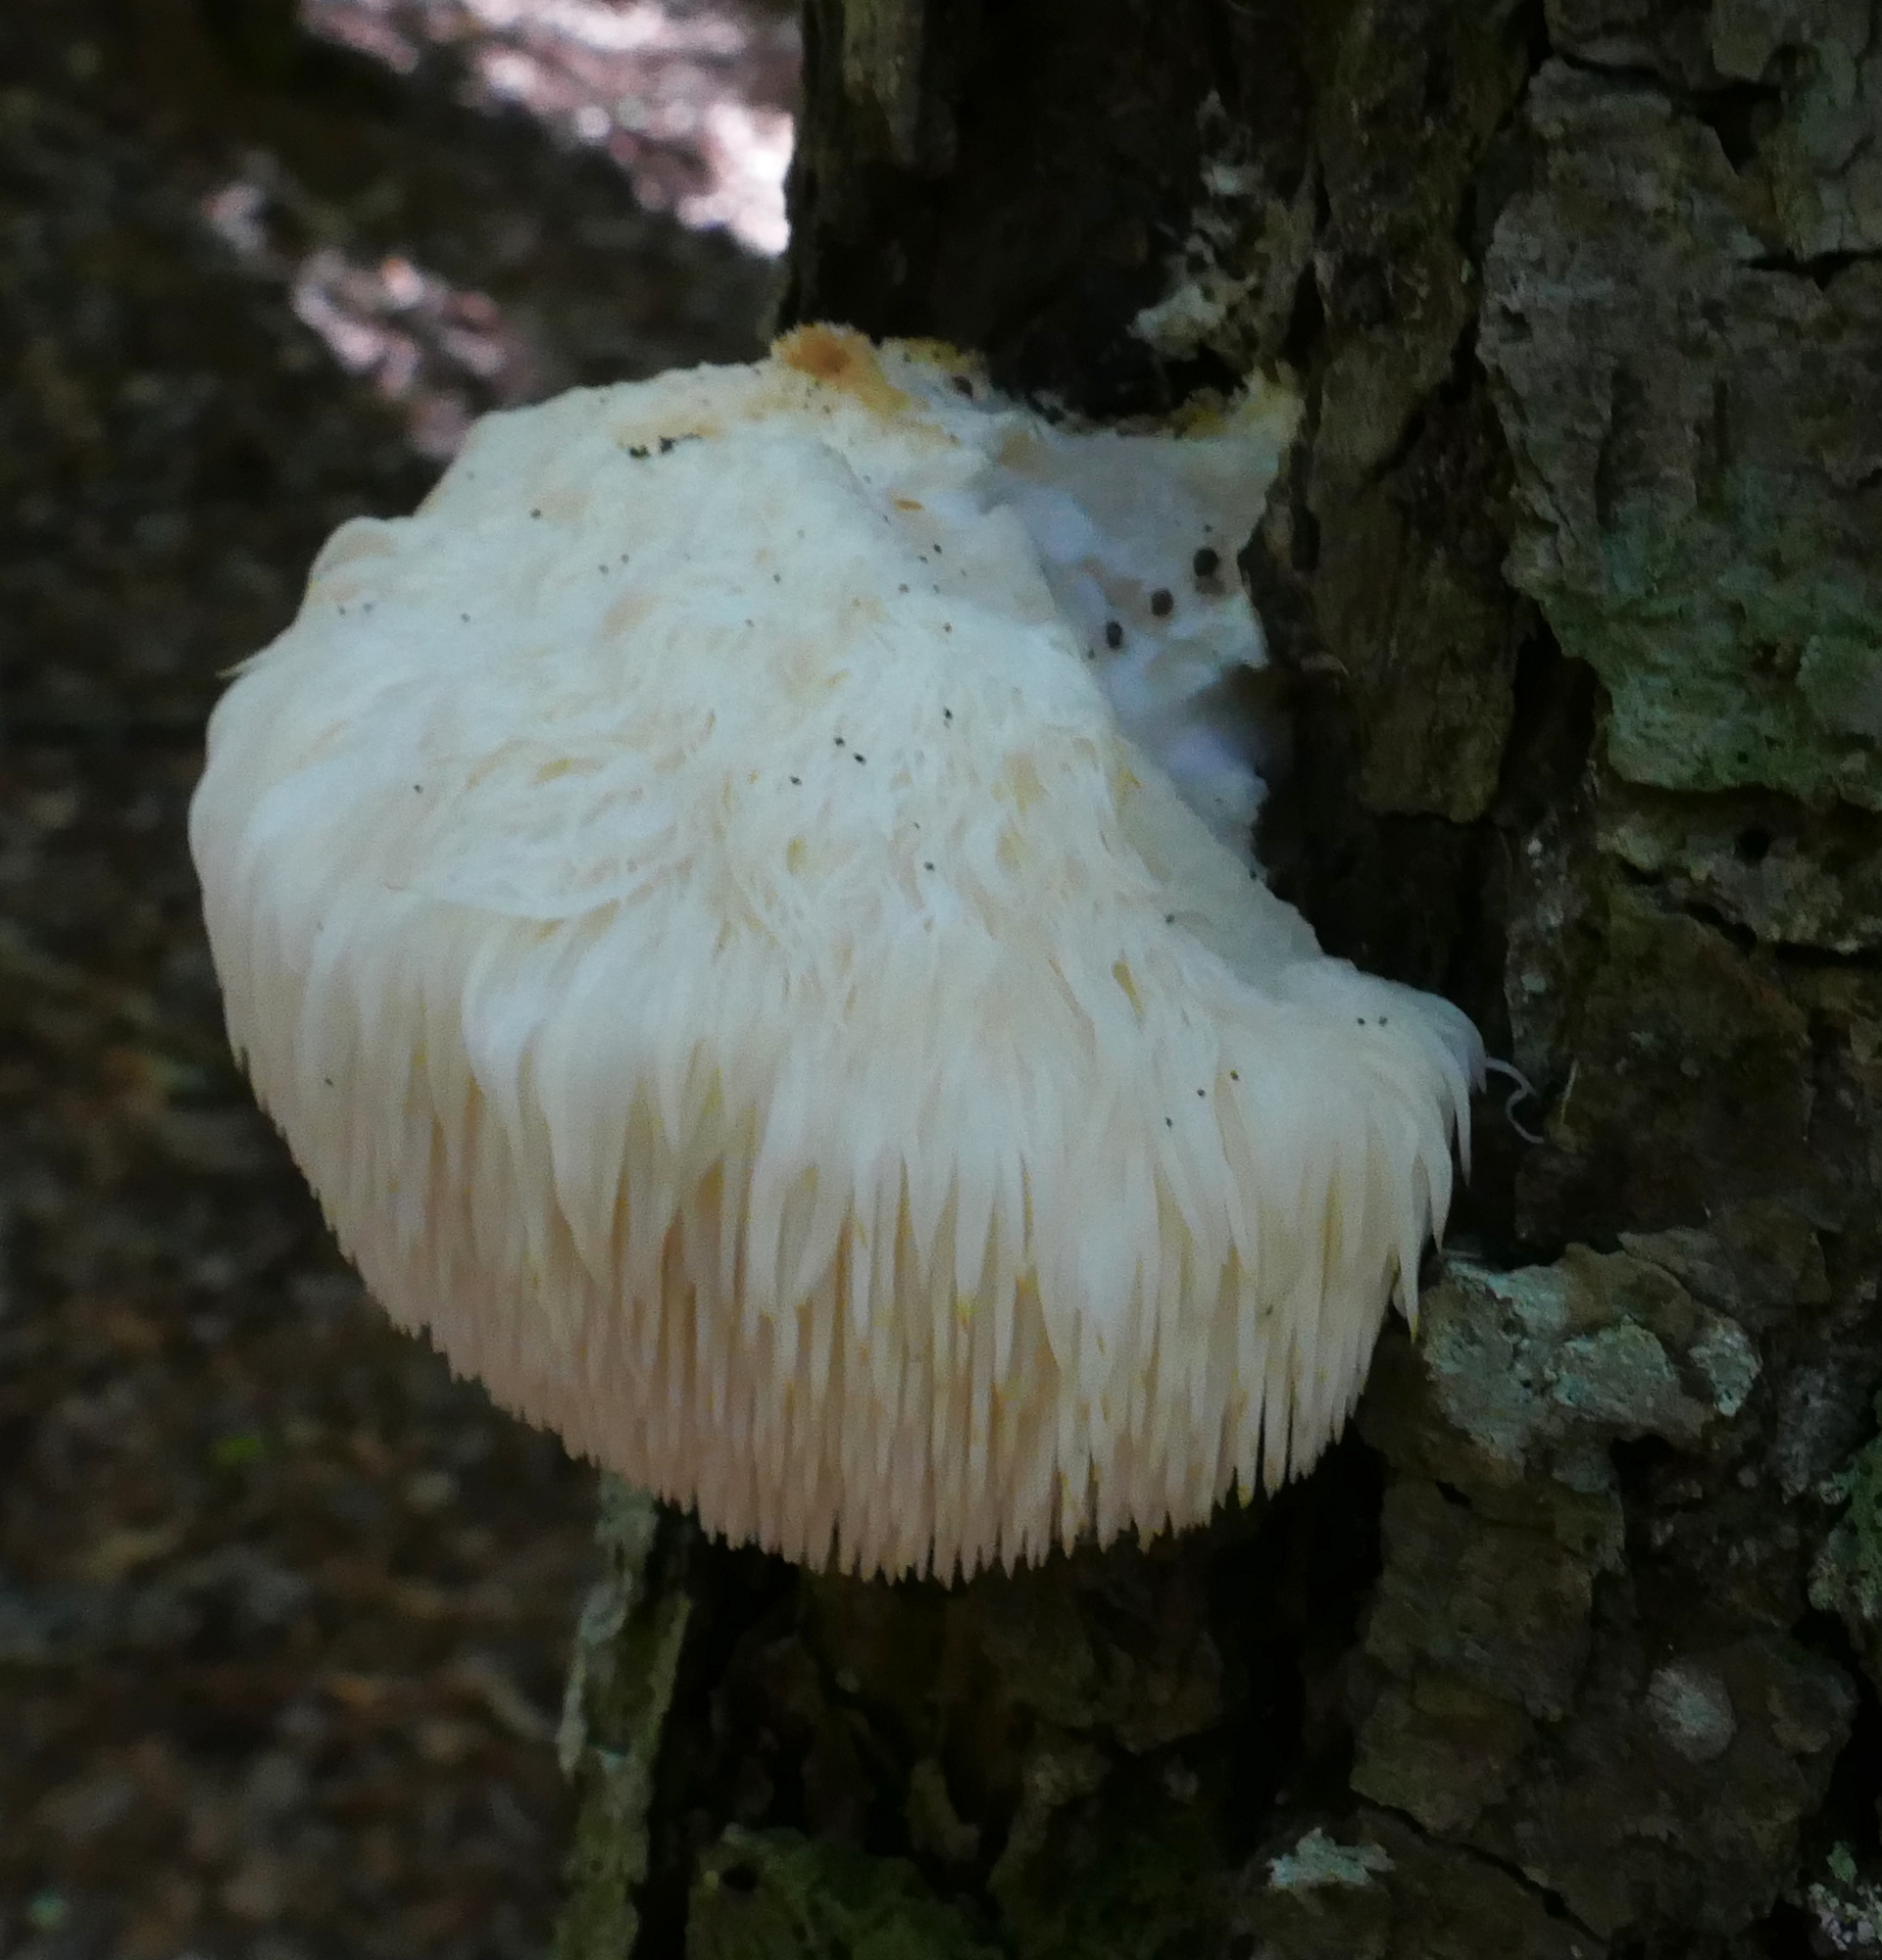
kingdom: Fungi
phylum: Basidiomycota
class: Agaricomycetes
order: Russulales
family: Hericiaceae
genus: Hericium
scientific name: Hericium erinaceus
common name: Bearded tooth
